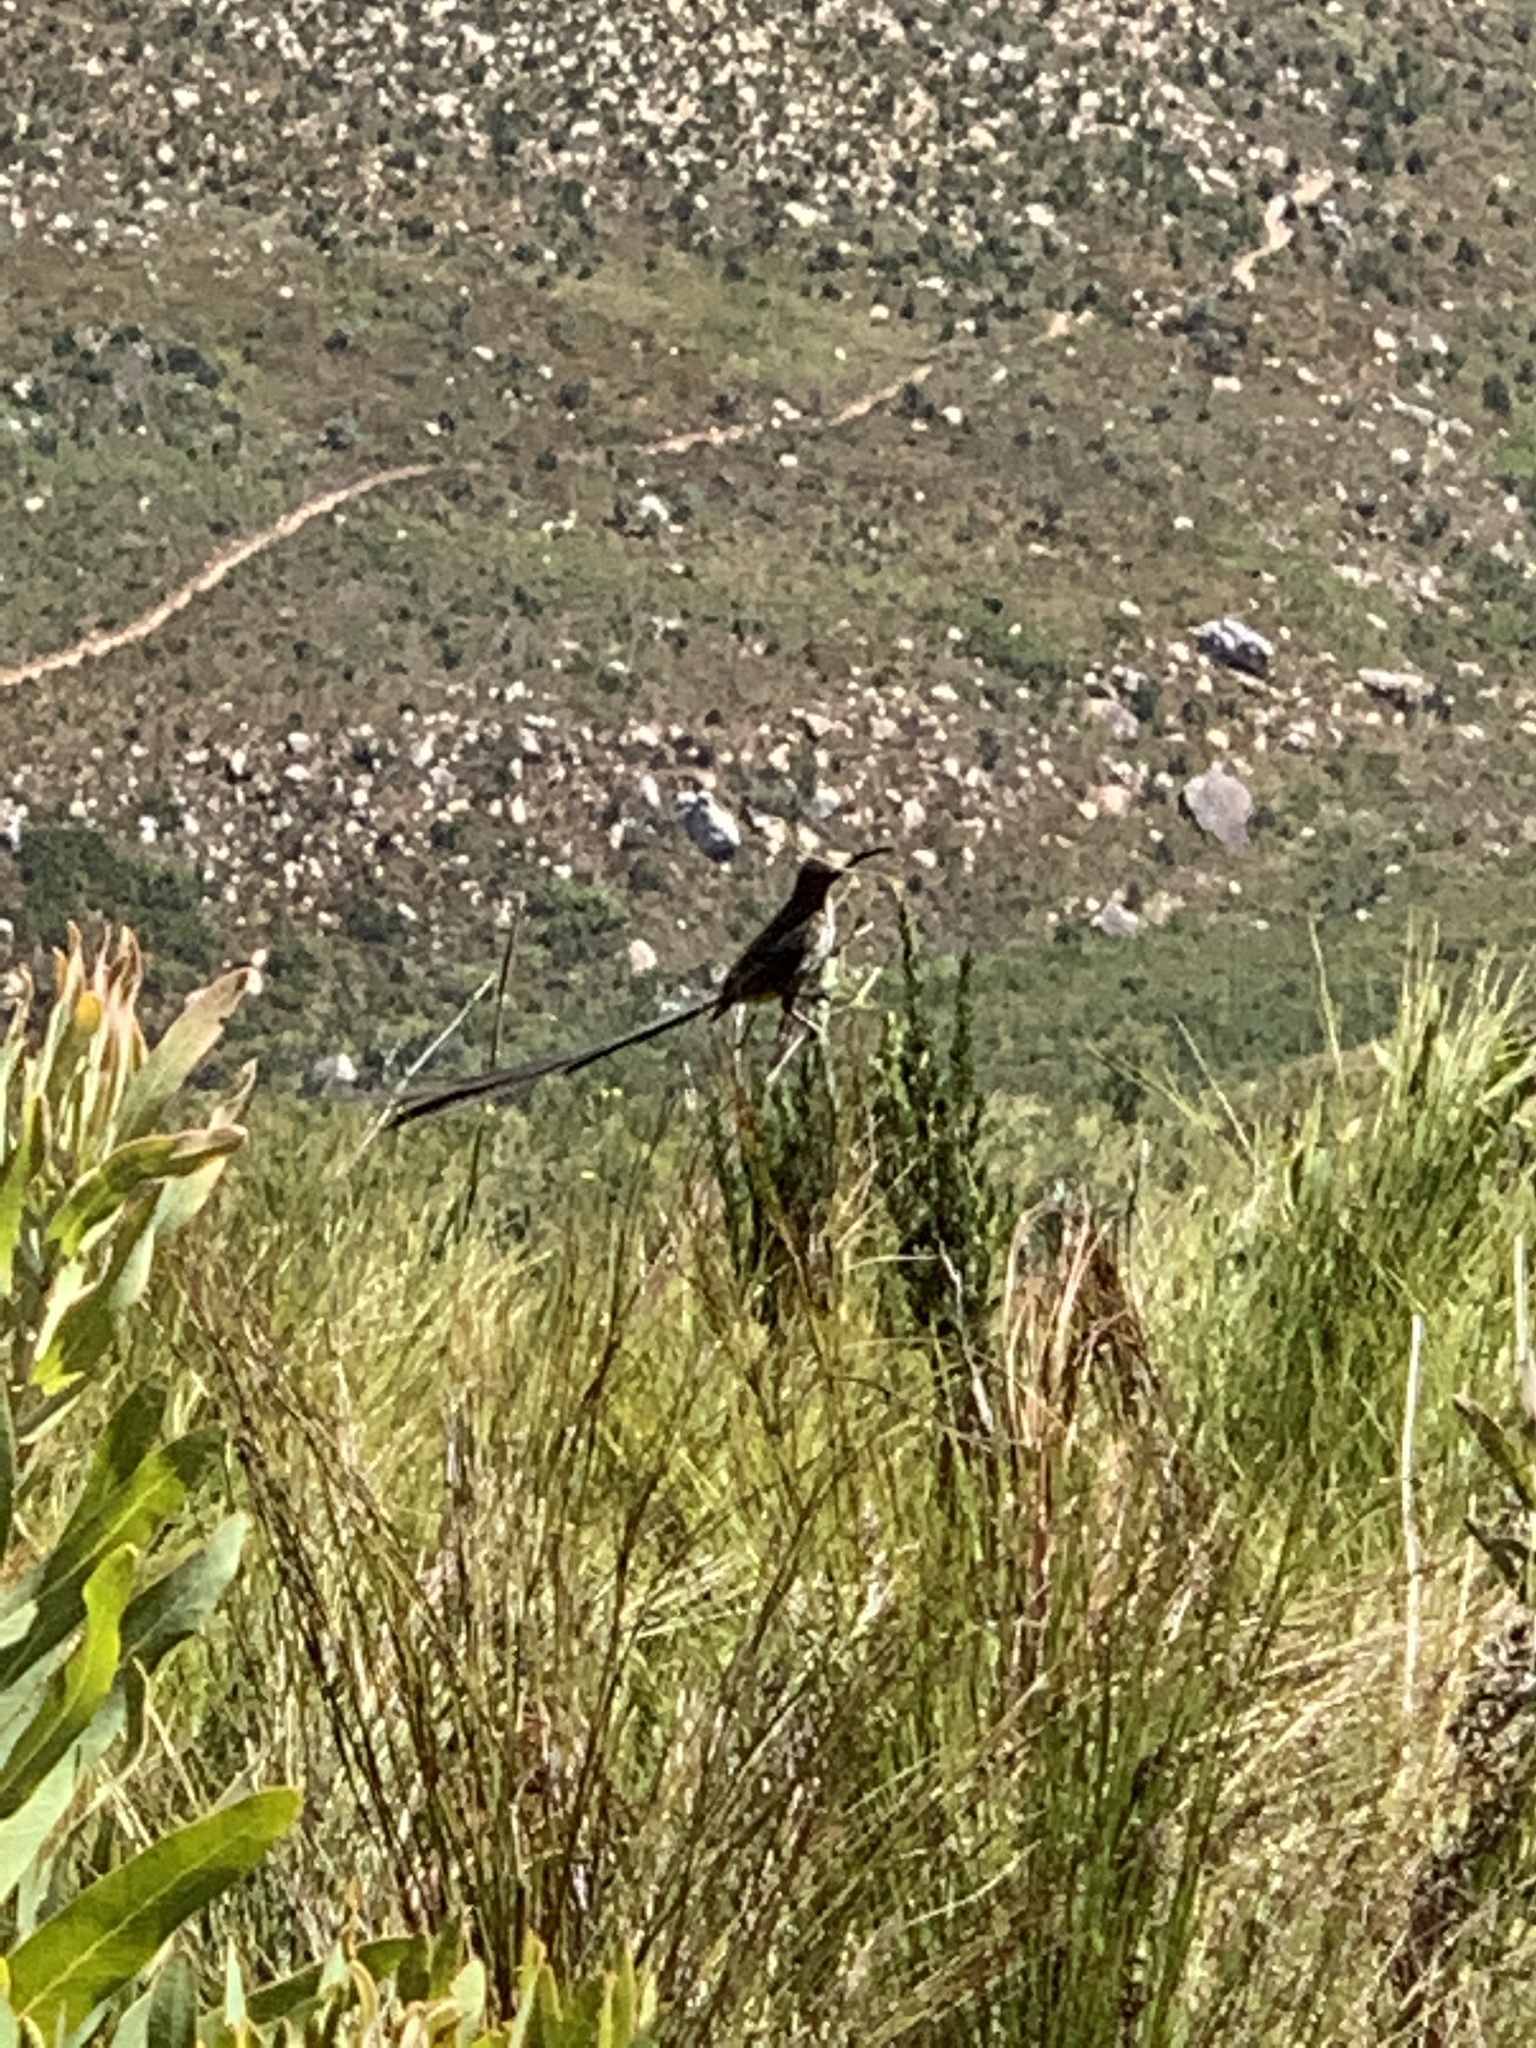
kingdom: Animalia
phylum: Chordata
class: Aves
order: Passeriformes
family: Promeropidae
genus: Promerops
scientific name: Promerops cafer
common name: Cape sugarbird
